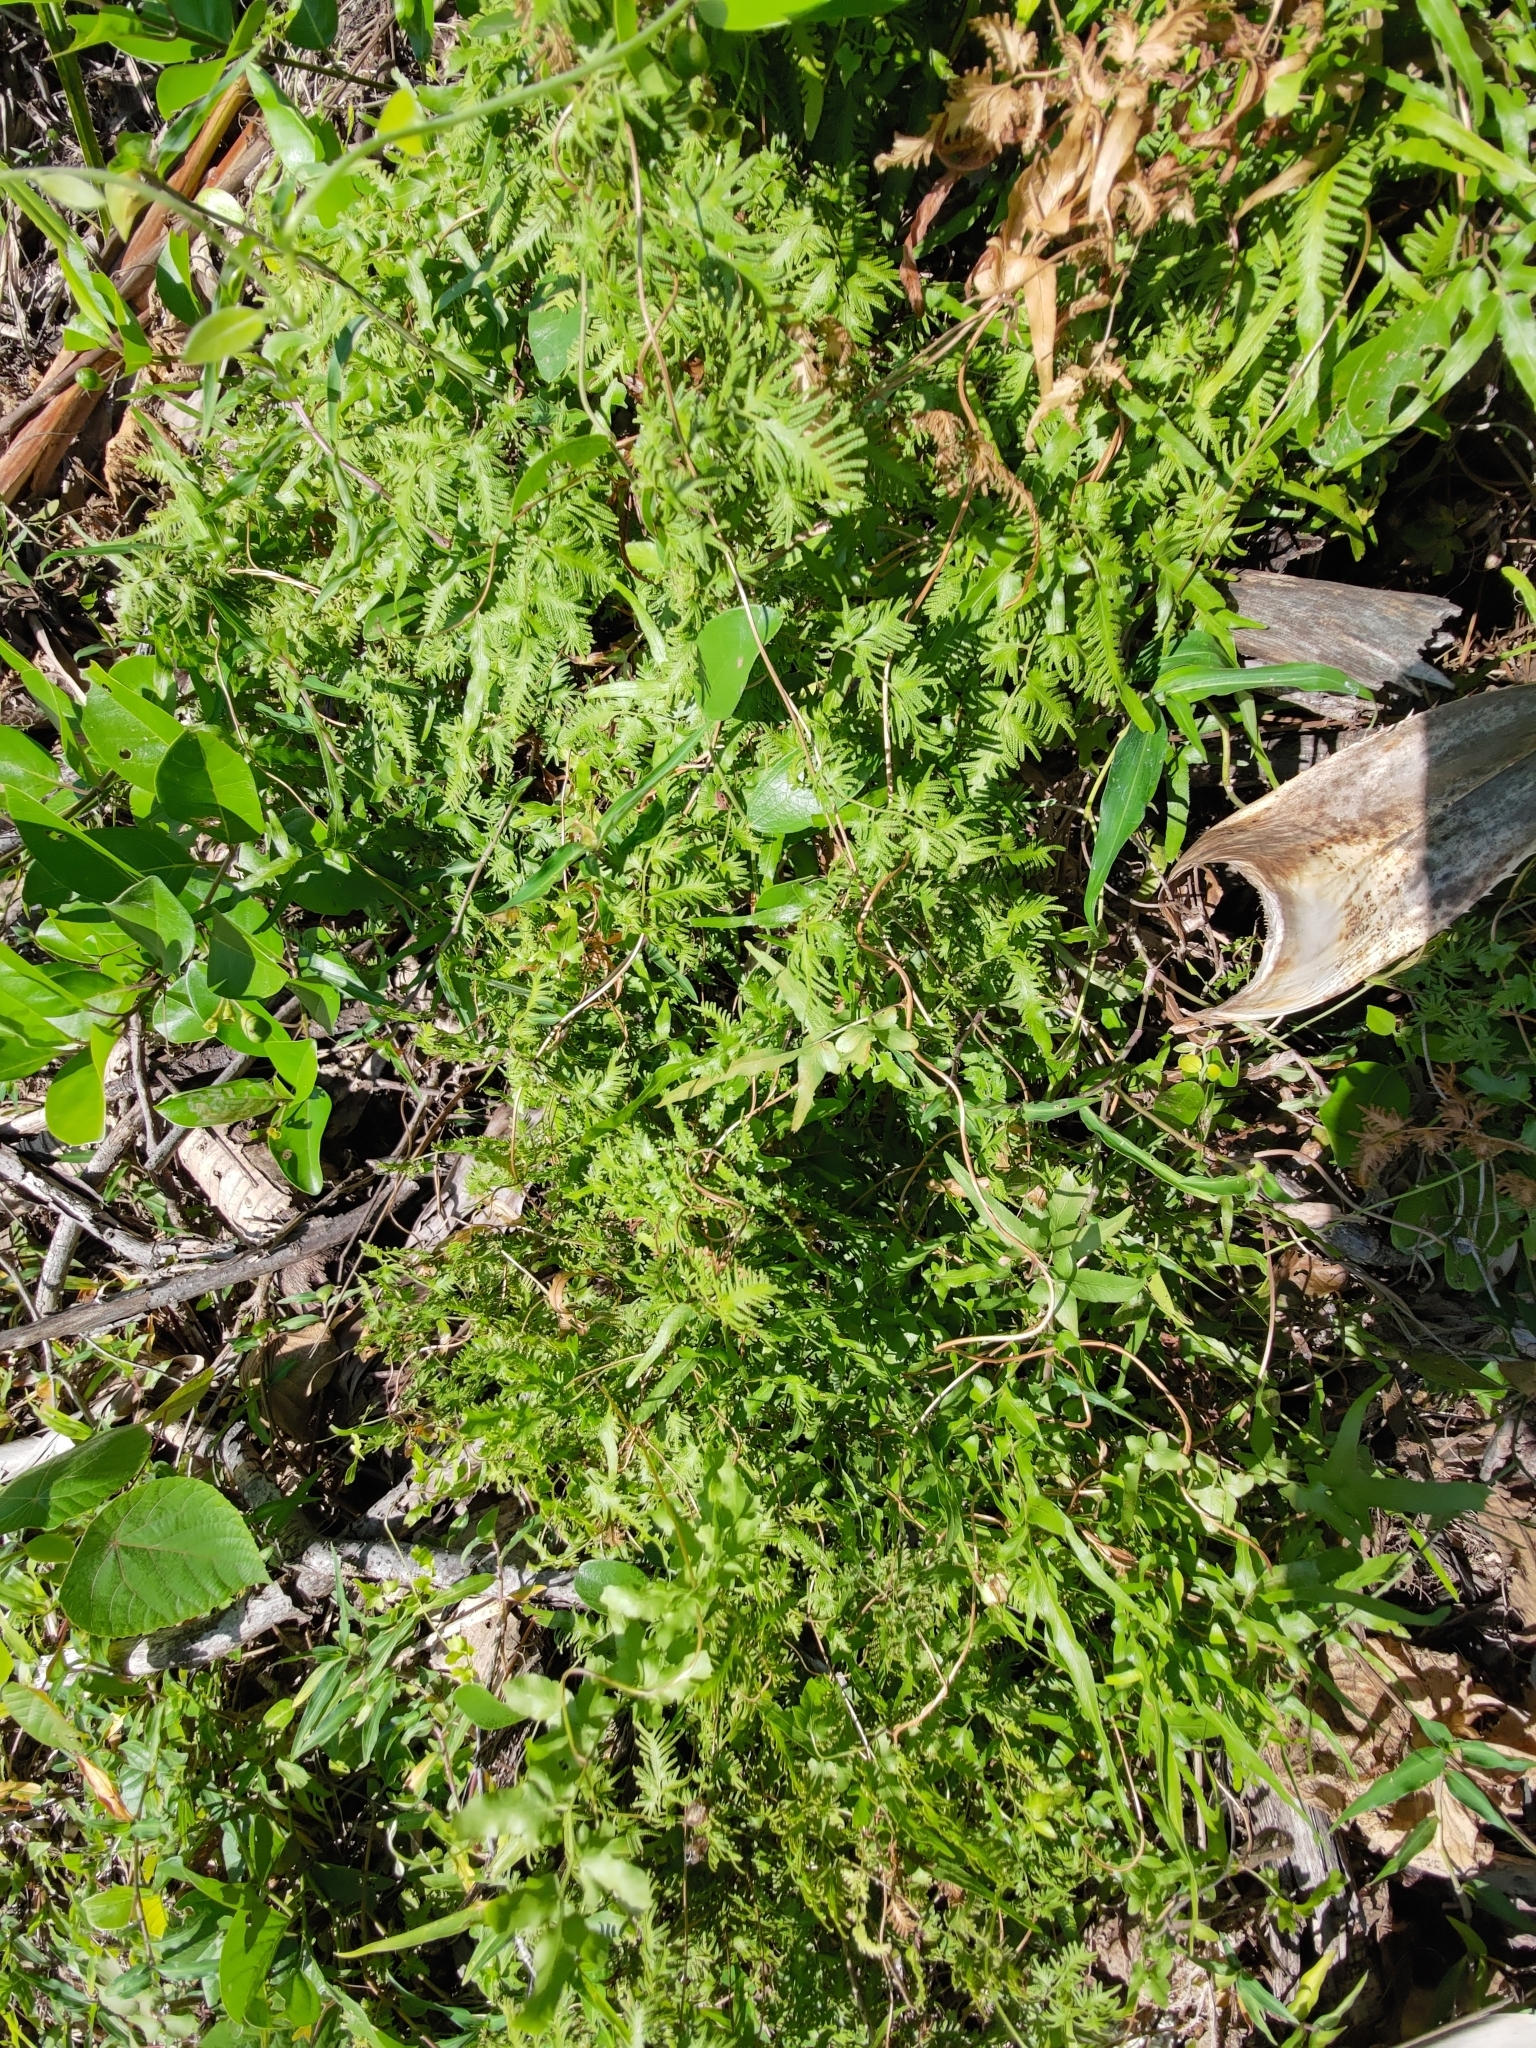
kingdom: Plantae
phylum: Tracheophyta
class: Polypodiopsida
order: Schizaeales
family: Lygodiaceae
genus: Lygodium
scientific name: Lygodium japonicum
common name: Japanese climbing fern
